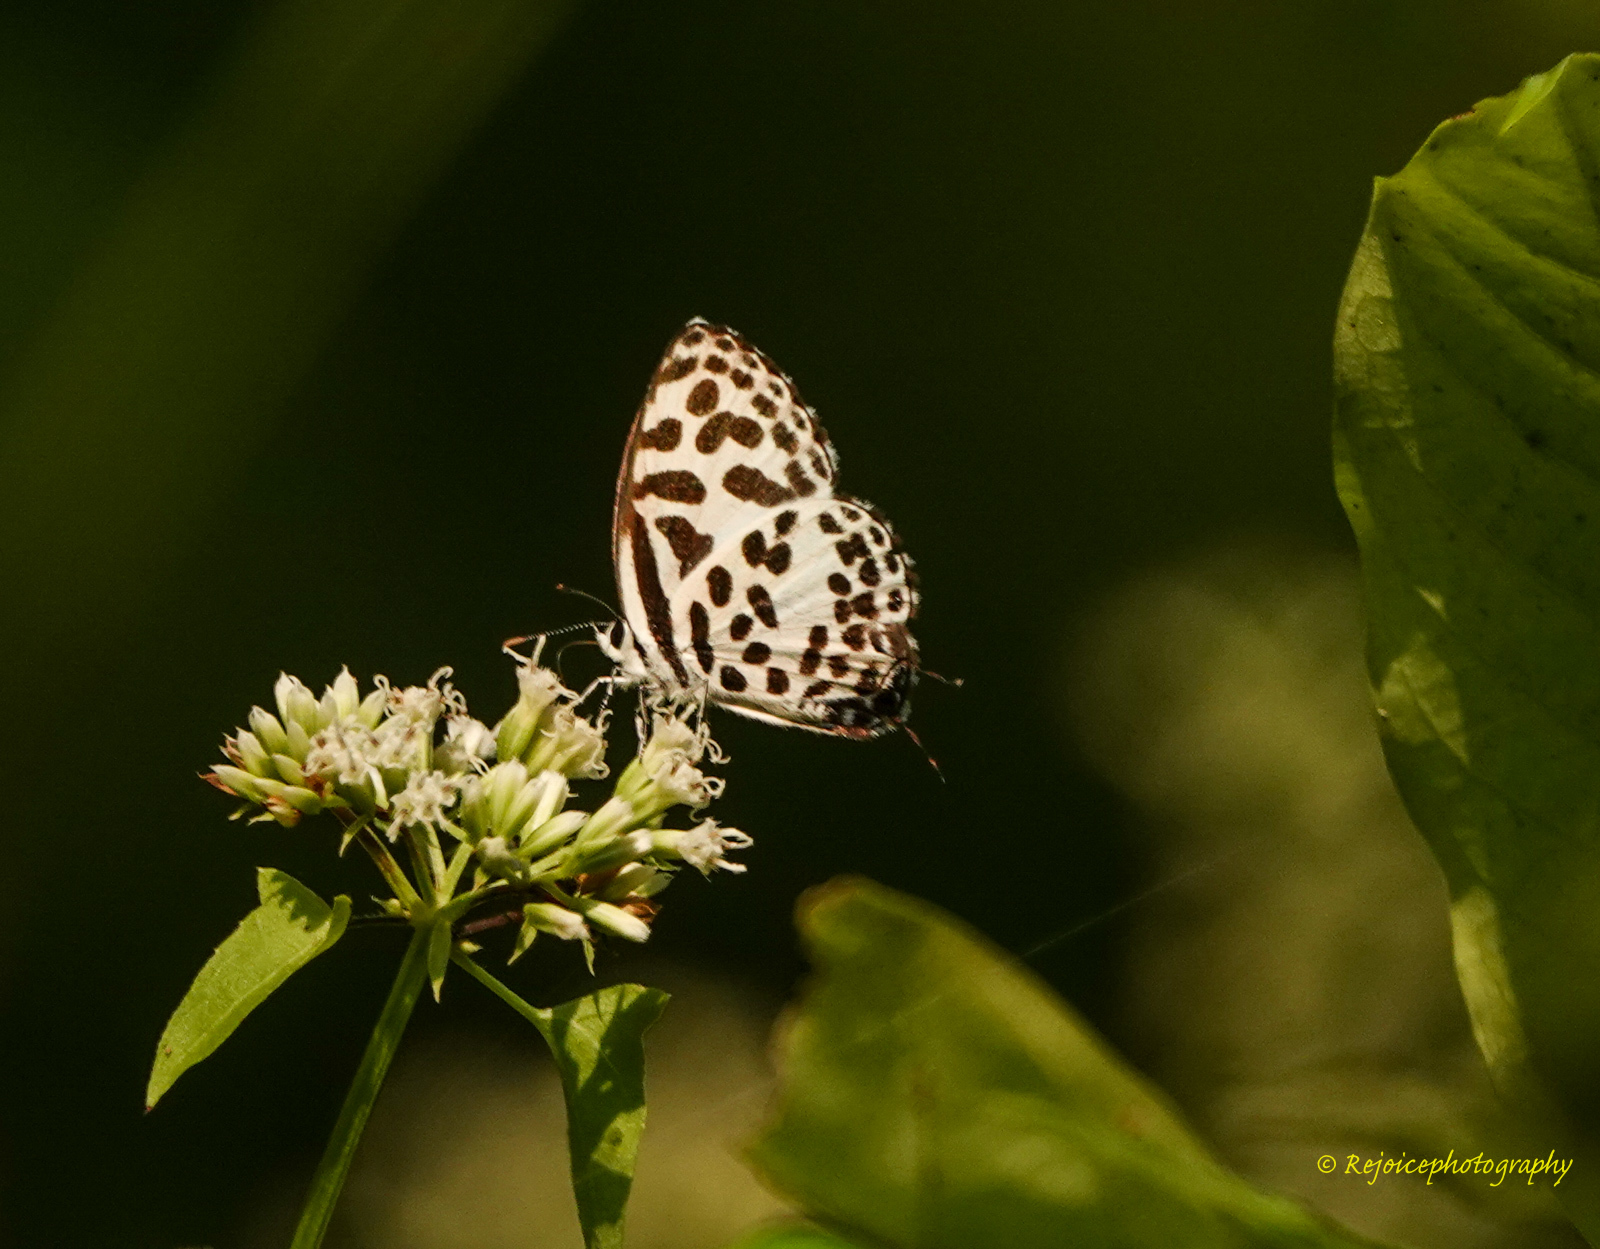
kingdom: Animalia
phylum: Arthropoda
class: Insecta
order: Lepidoptera
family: Lycaenidae
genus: Castalius
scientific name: Castalius rosimon
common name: Common pierrot
